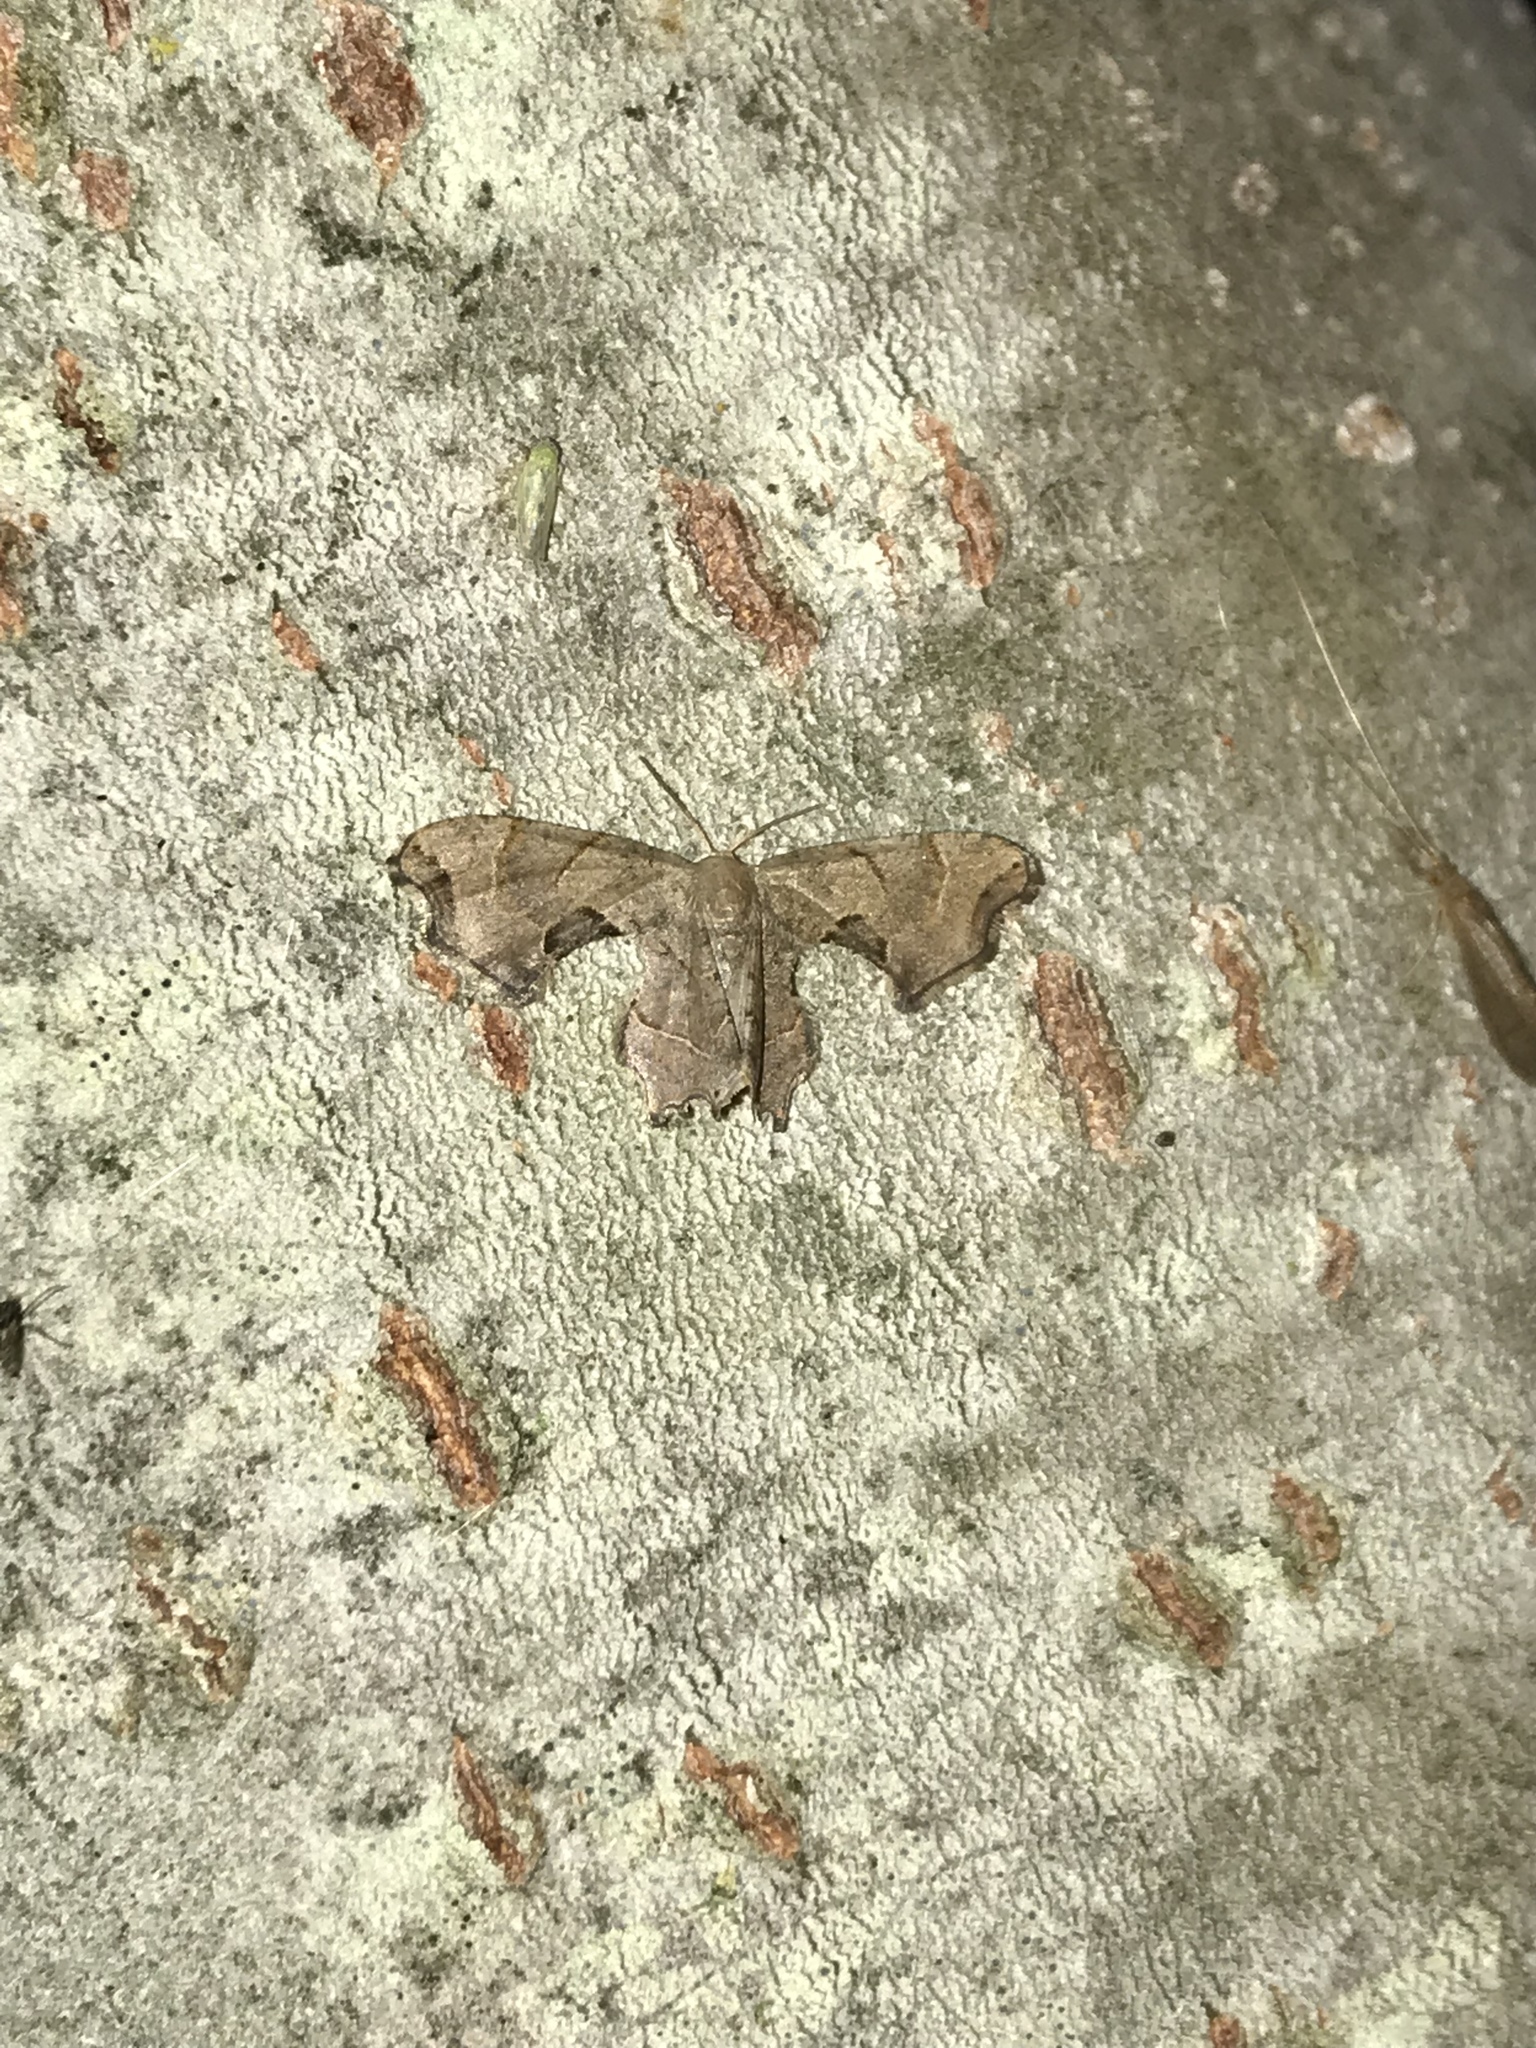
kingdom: Animalia
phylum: Arthropoda
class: Insecta
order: Lepidoptera
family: Uraniidae
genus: Epiplema
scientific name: Epiplema Calledapteryx dryopterata
